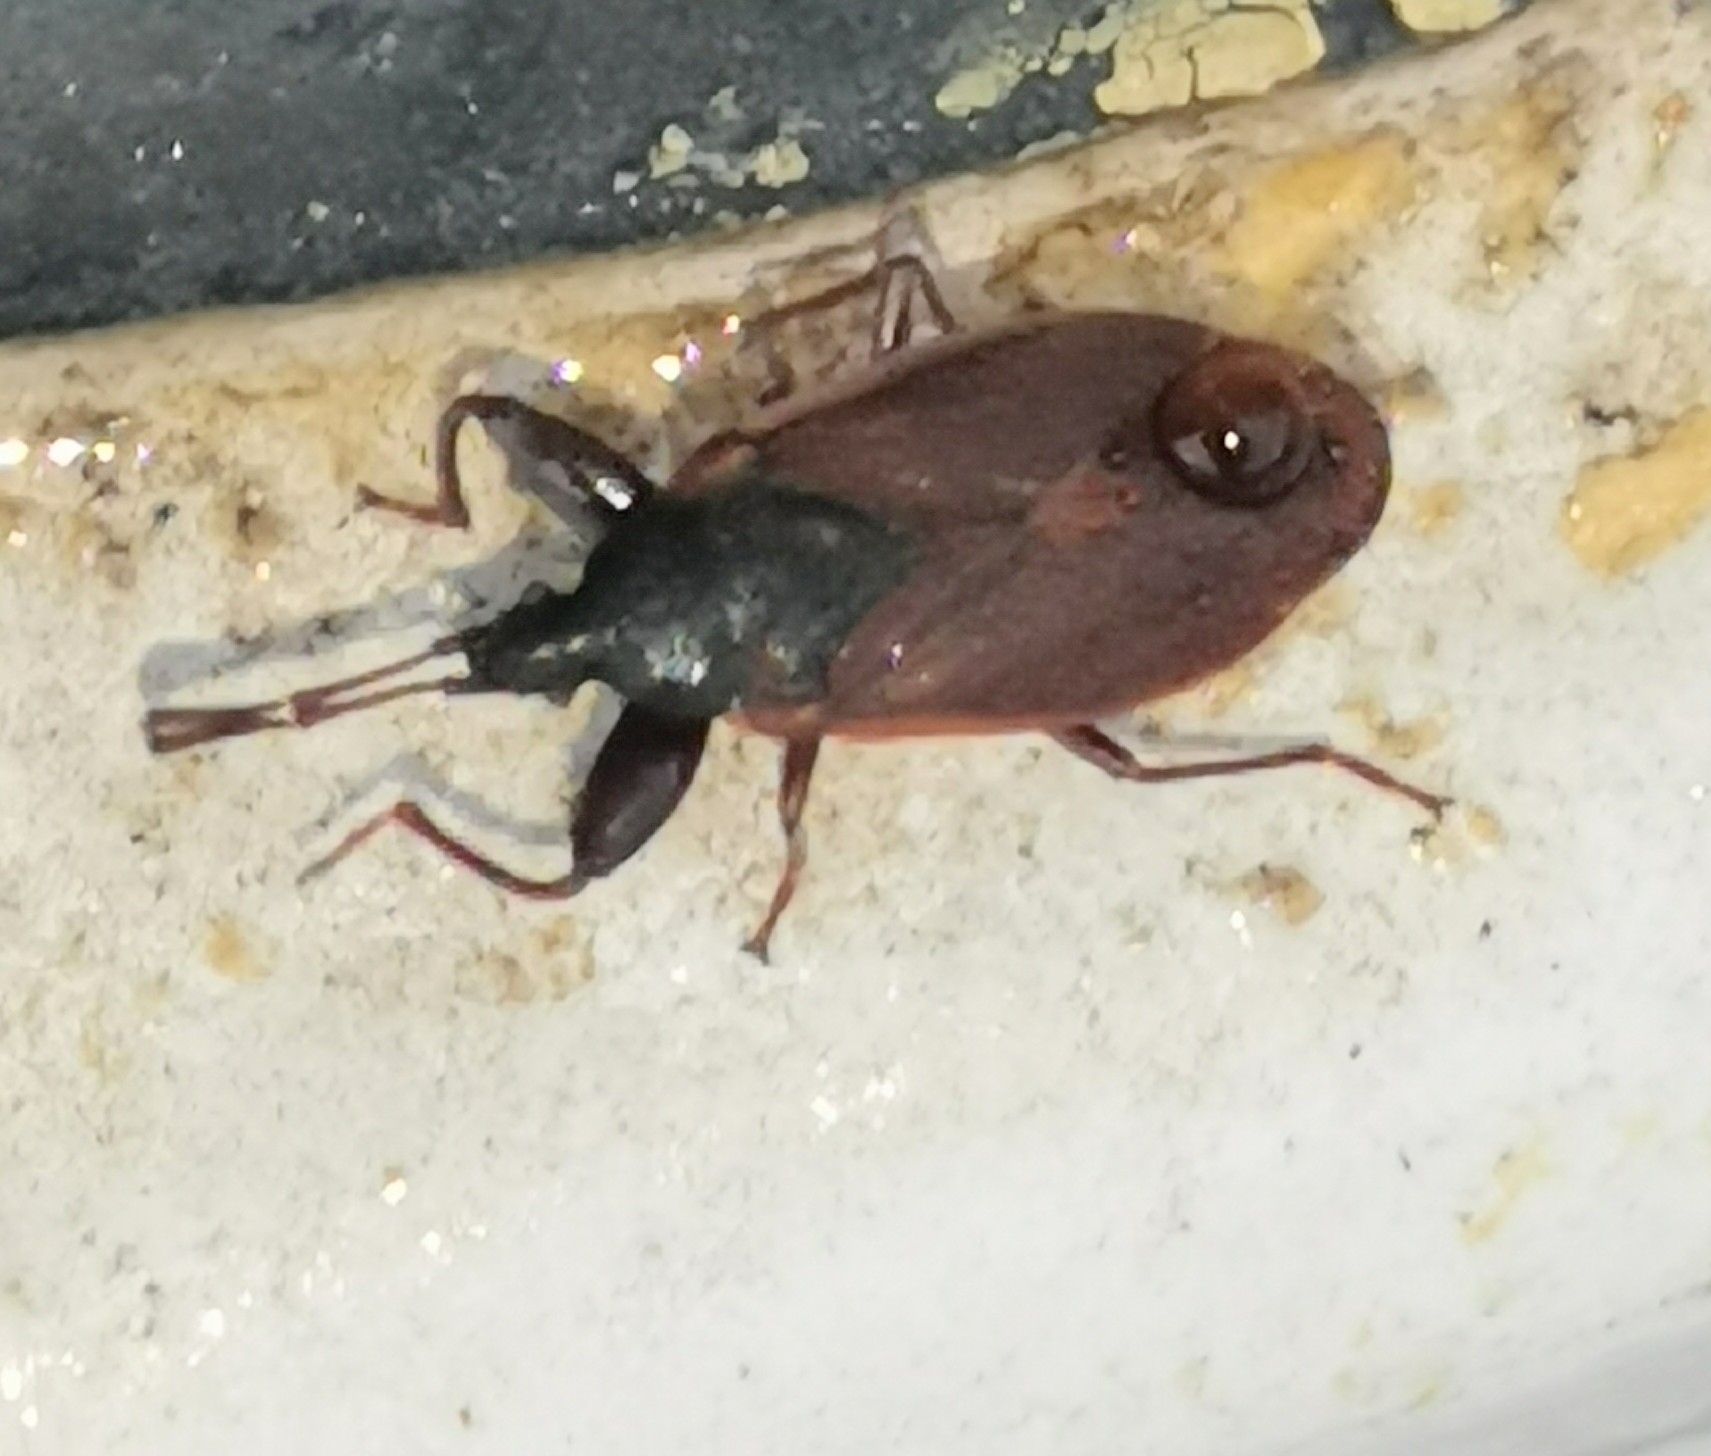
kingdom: Animalia
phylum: Arthropoda
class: Insecta
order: Hemiptera
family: Rhyparochromidae
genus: Gastrodes
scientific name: Gastrodes grossipes
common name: Pine cone bug
